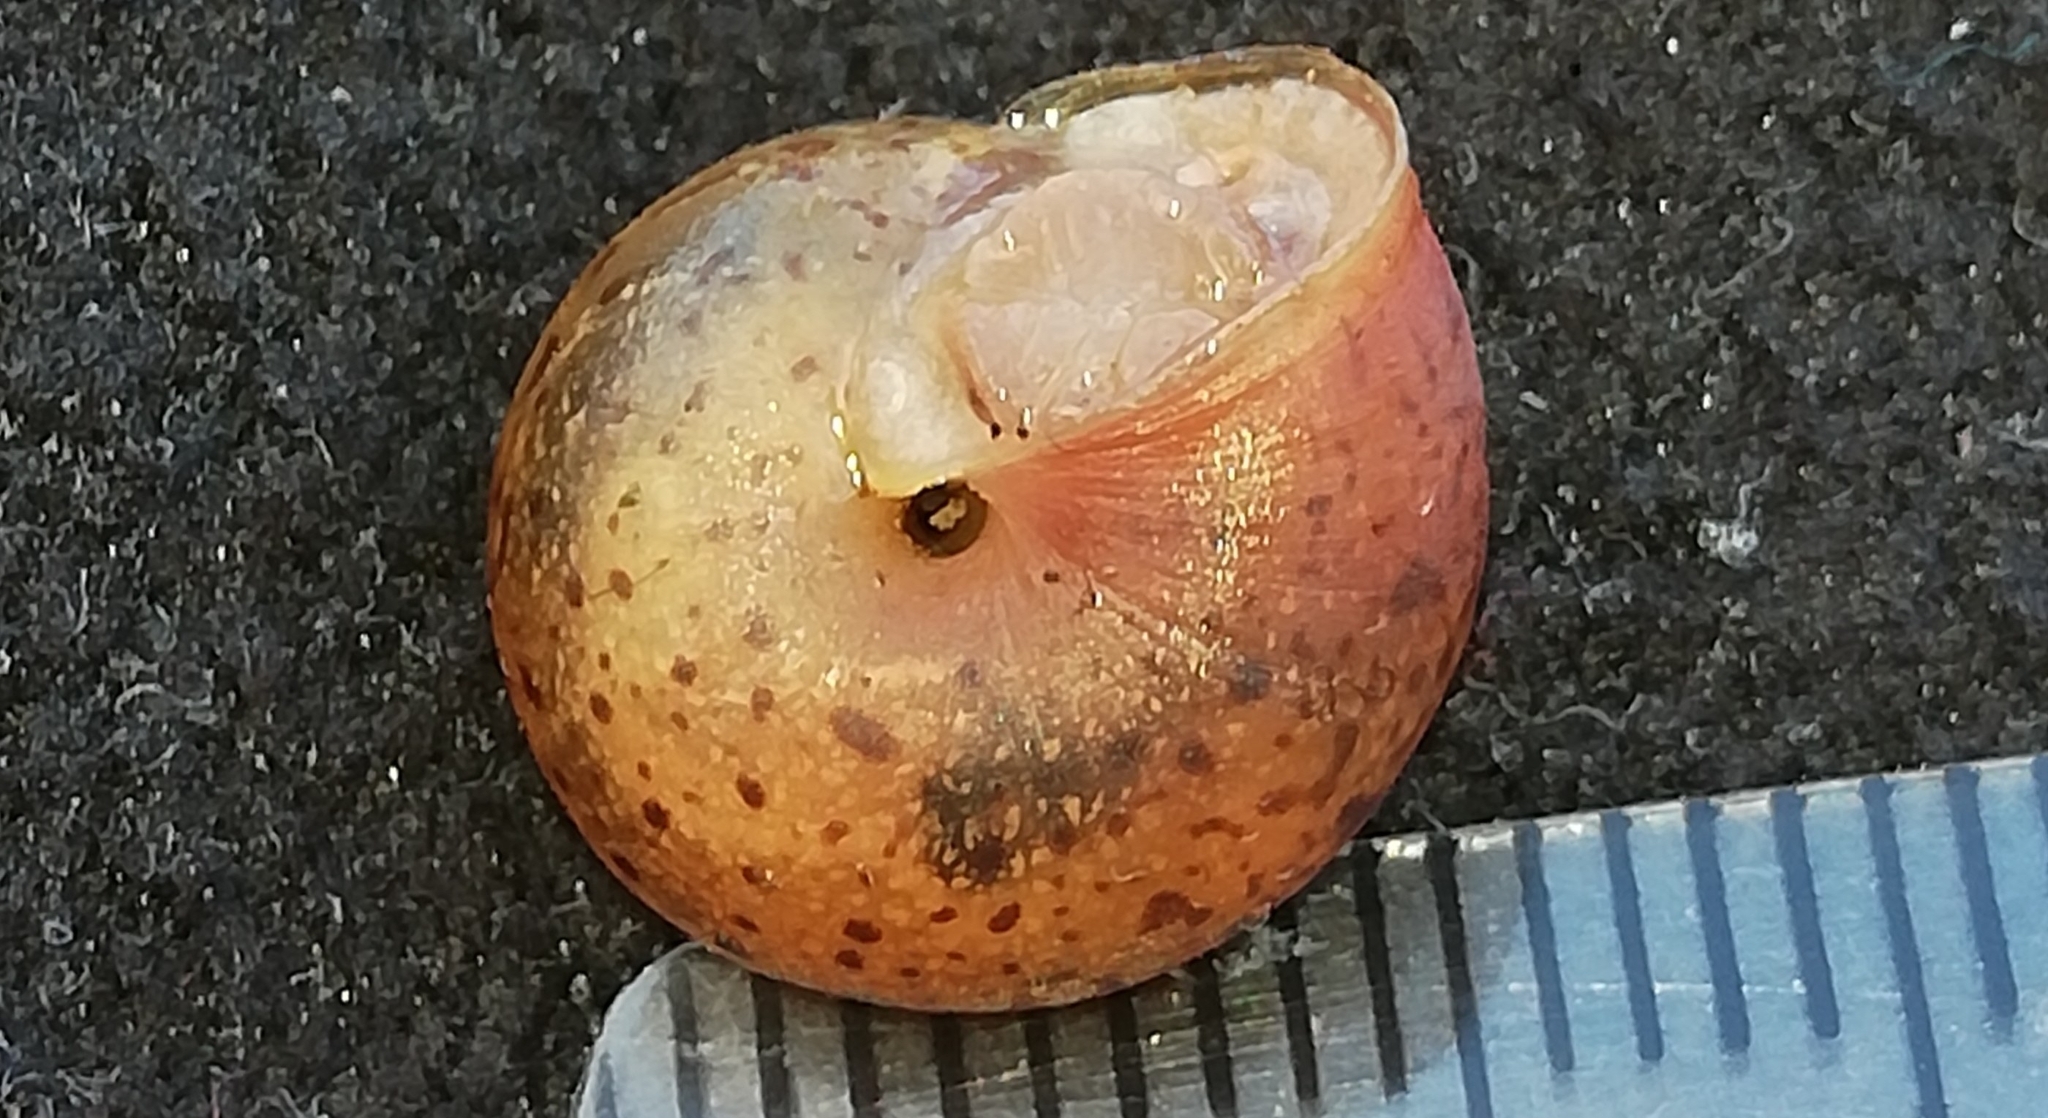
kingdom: Animalia
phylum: Mollusca
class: Gastropoda
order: Stylommatophora
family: Hygromiidae
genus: Monachoides
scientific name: Monachoides incarnatus
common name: Incarnate snail
